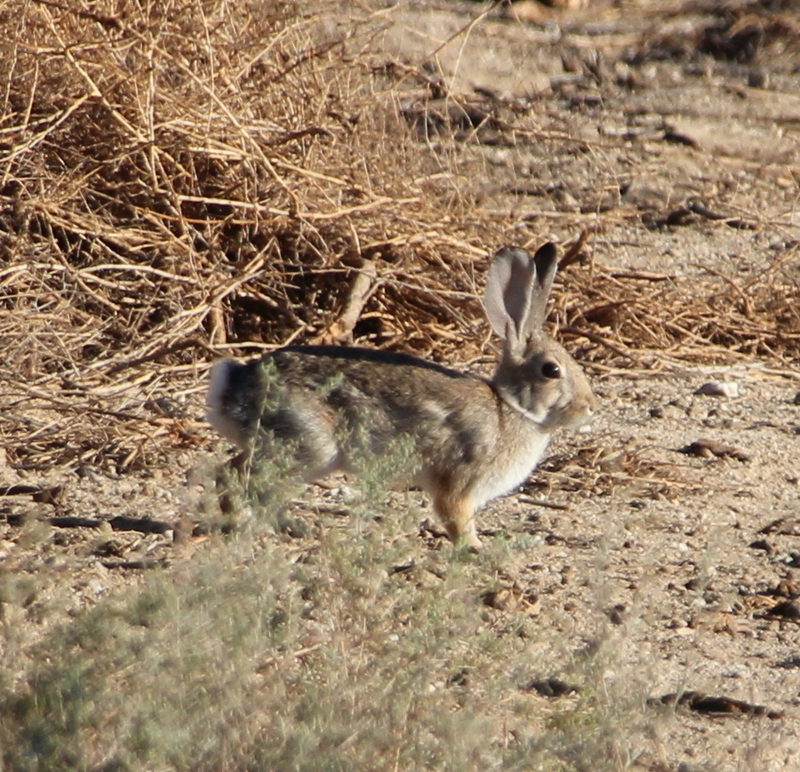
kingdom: Animalia
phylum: Chordata
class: Mammalia
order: Lagomorpha
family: Leporidae
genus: Sylvilagus
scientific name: Sylvilagus audubonii
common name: Desert cottontail
